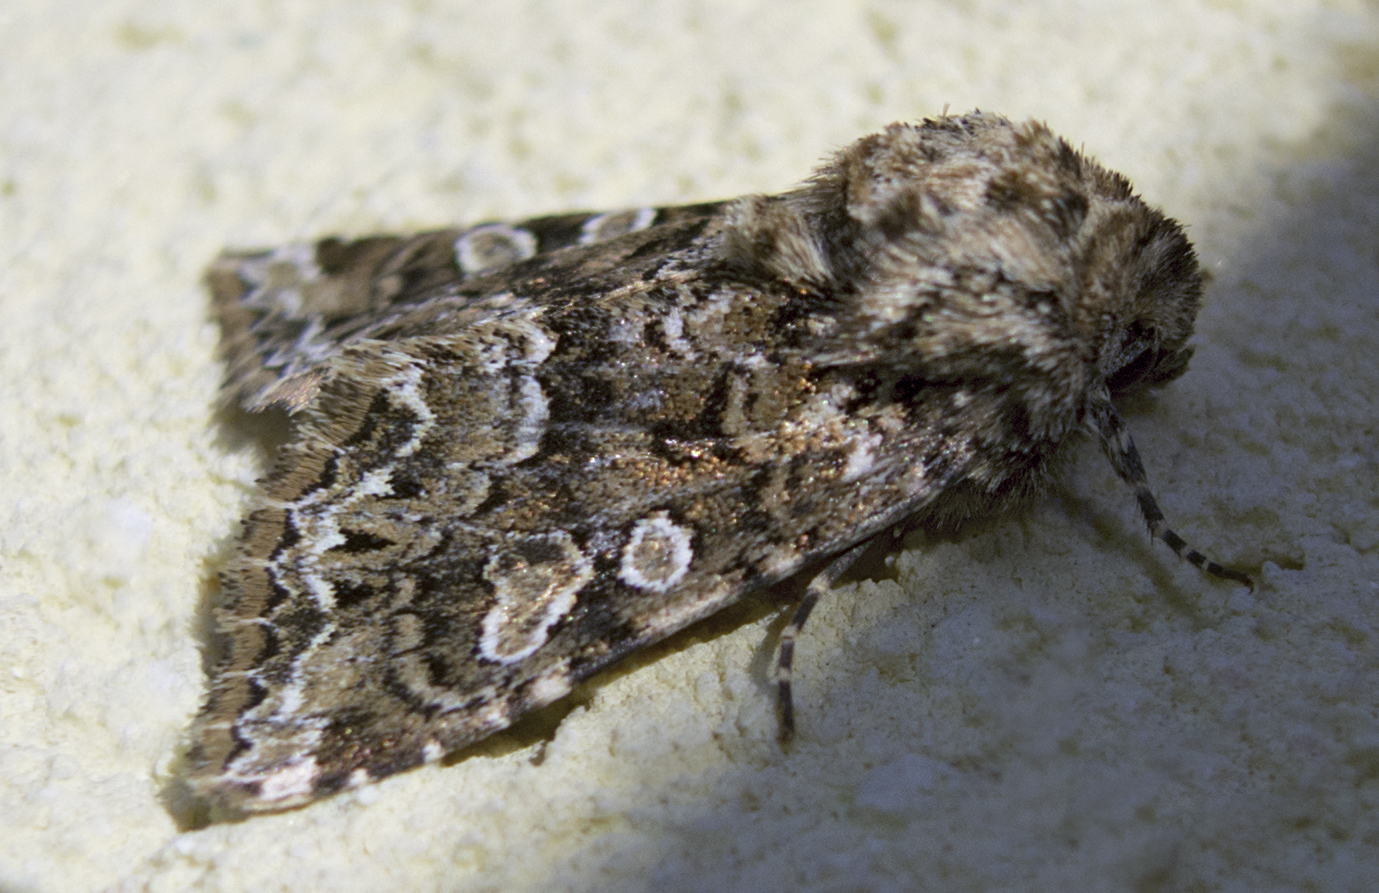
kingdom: Animalia
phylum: Arthropoda
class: Insecta
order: Lepidoptera
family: Noctuidae
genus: Hadena
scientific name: Hadena perplexa
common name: Tawny shears
